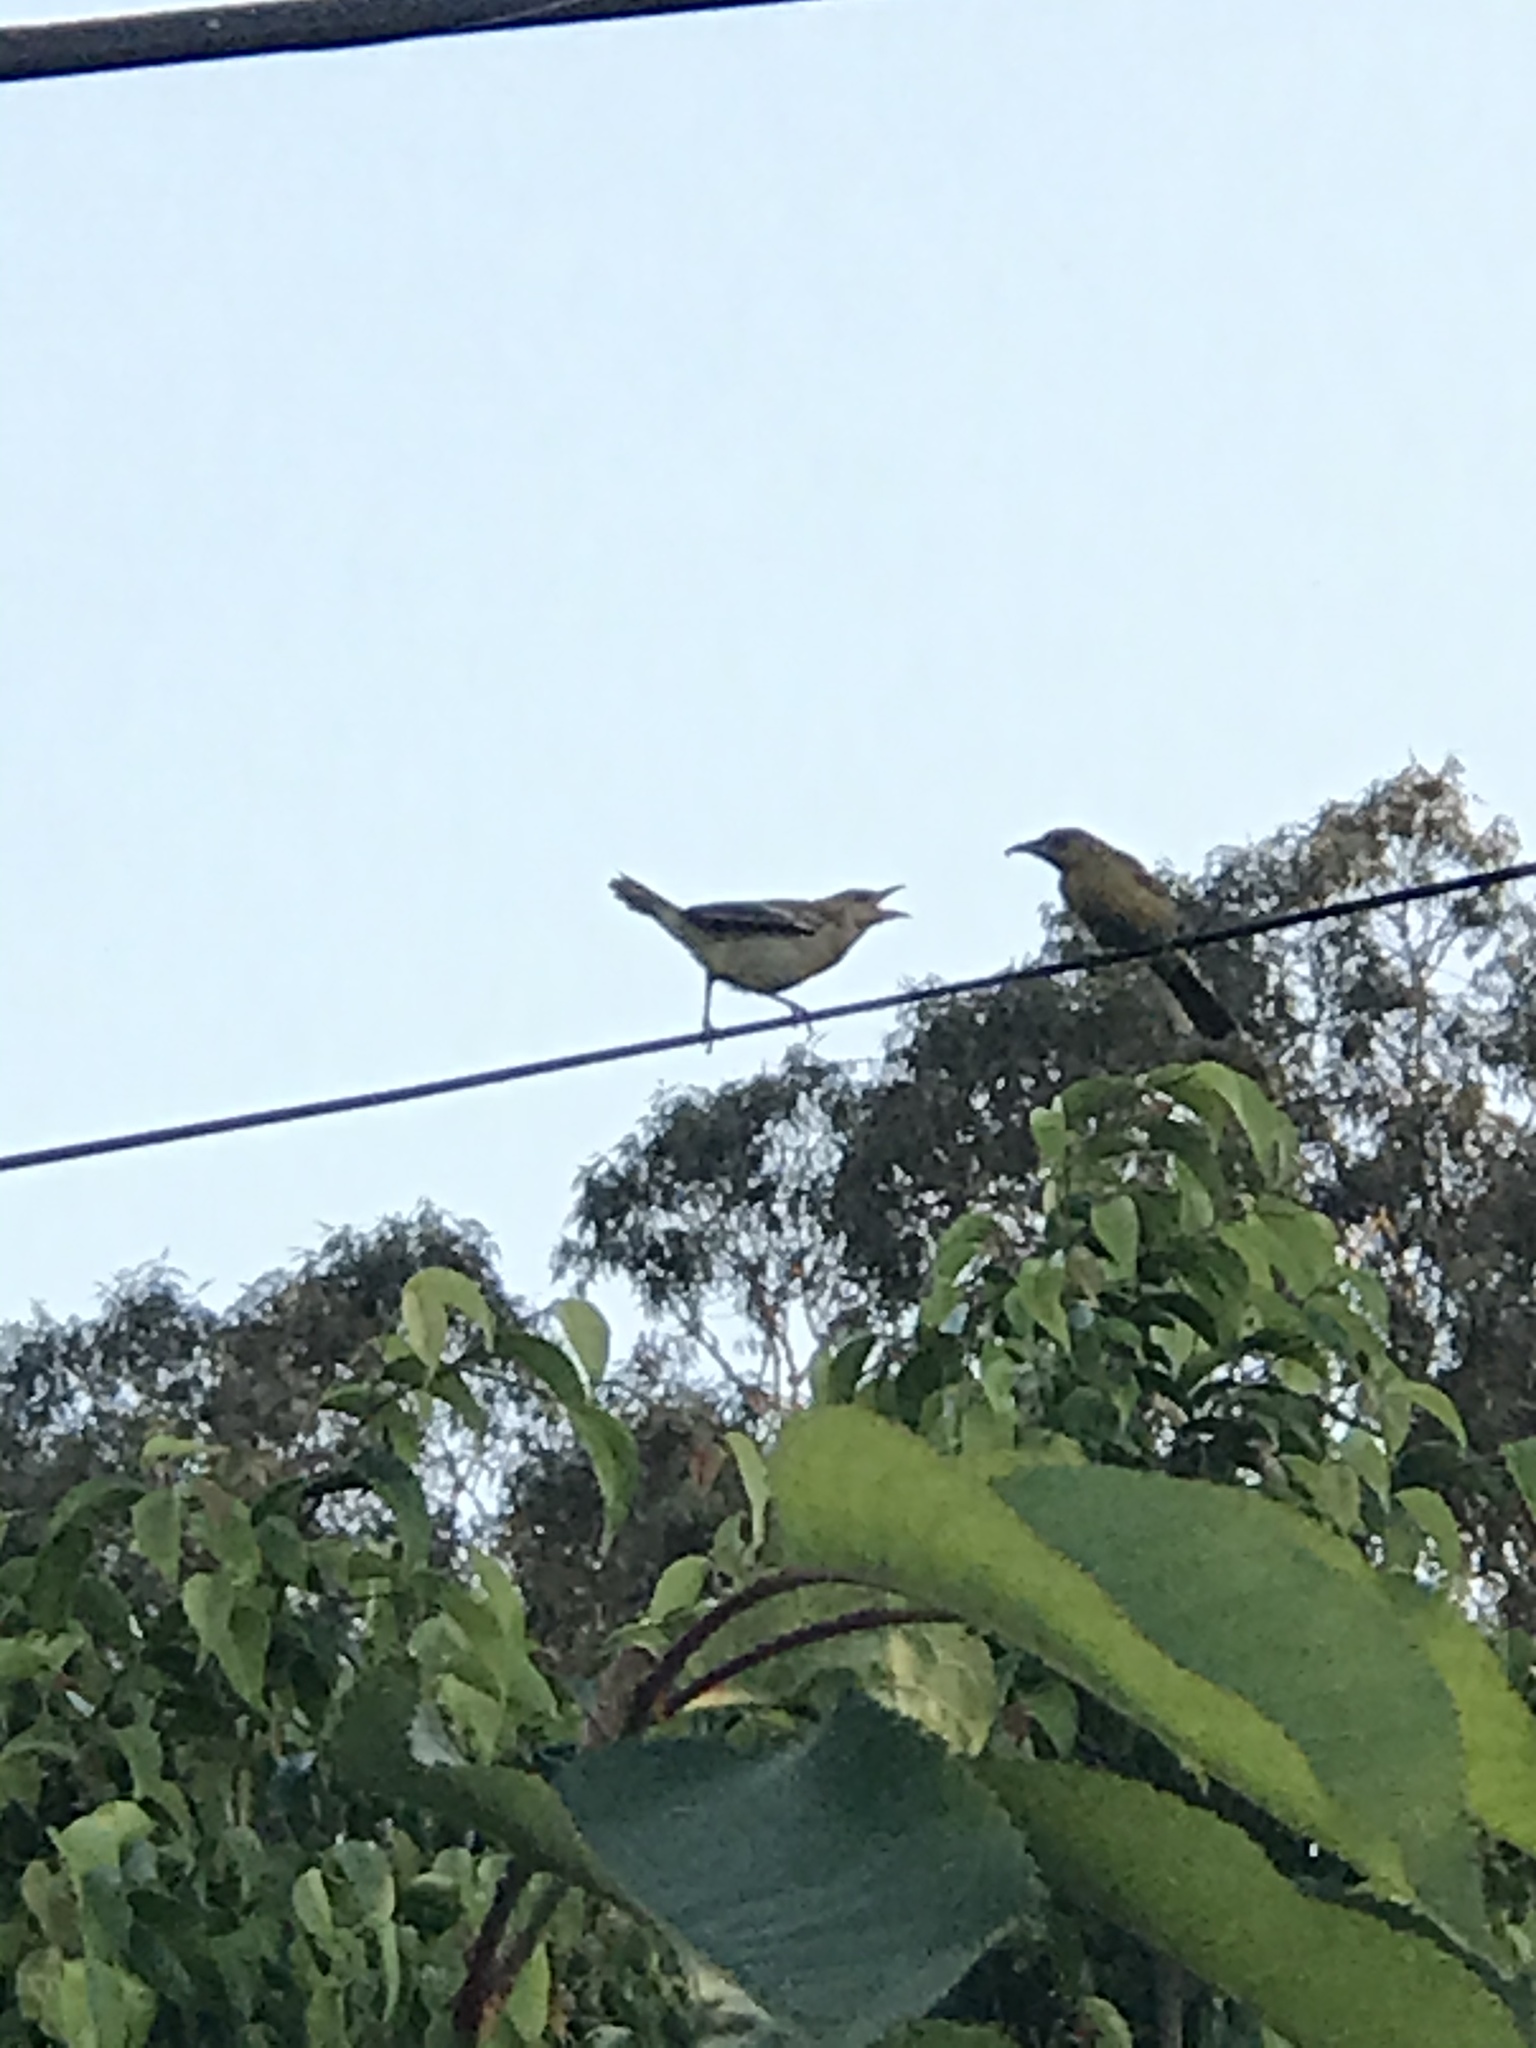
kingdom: Animalia
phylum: Chordata
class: Aves
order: Passeriformes
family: Icteridae
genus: Icterus
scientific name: Icterus cucullatus
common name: Hooded oriole
